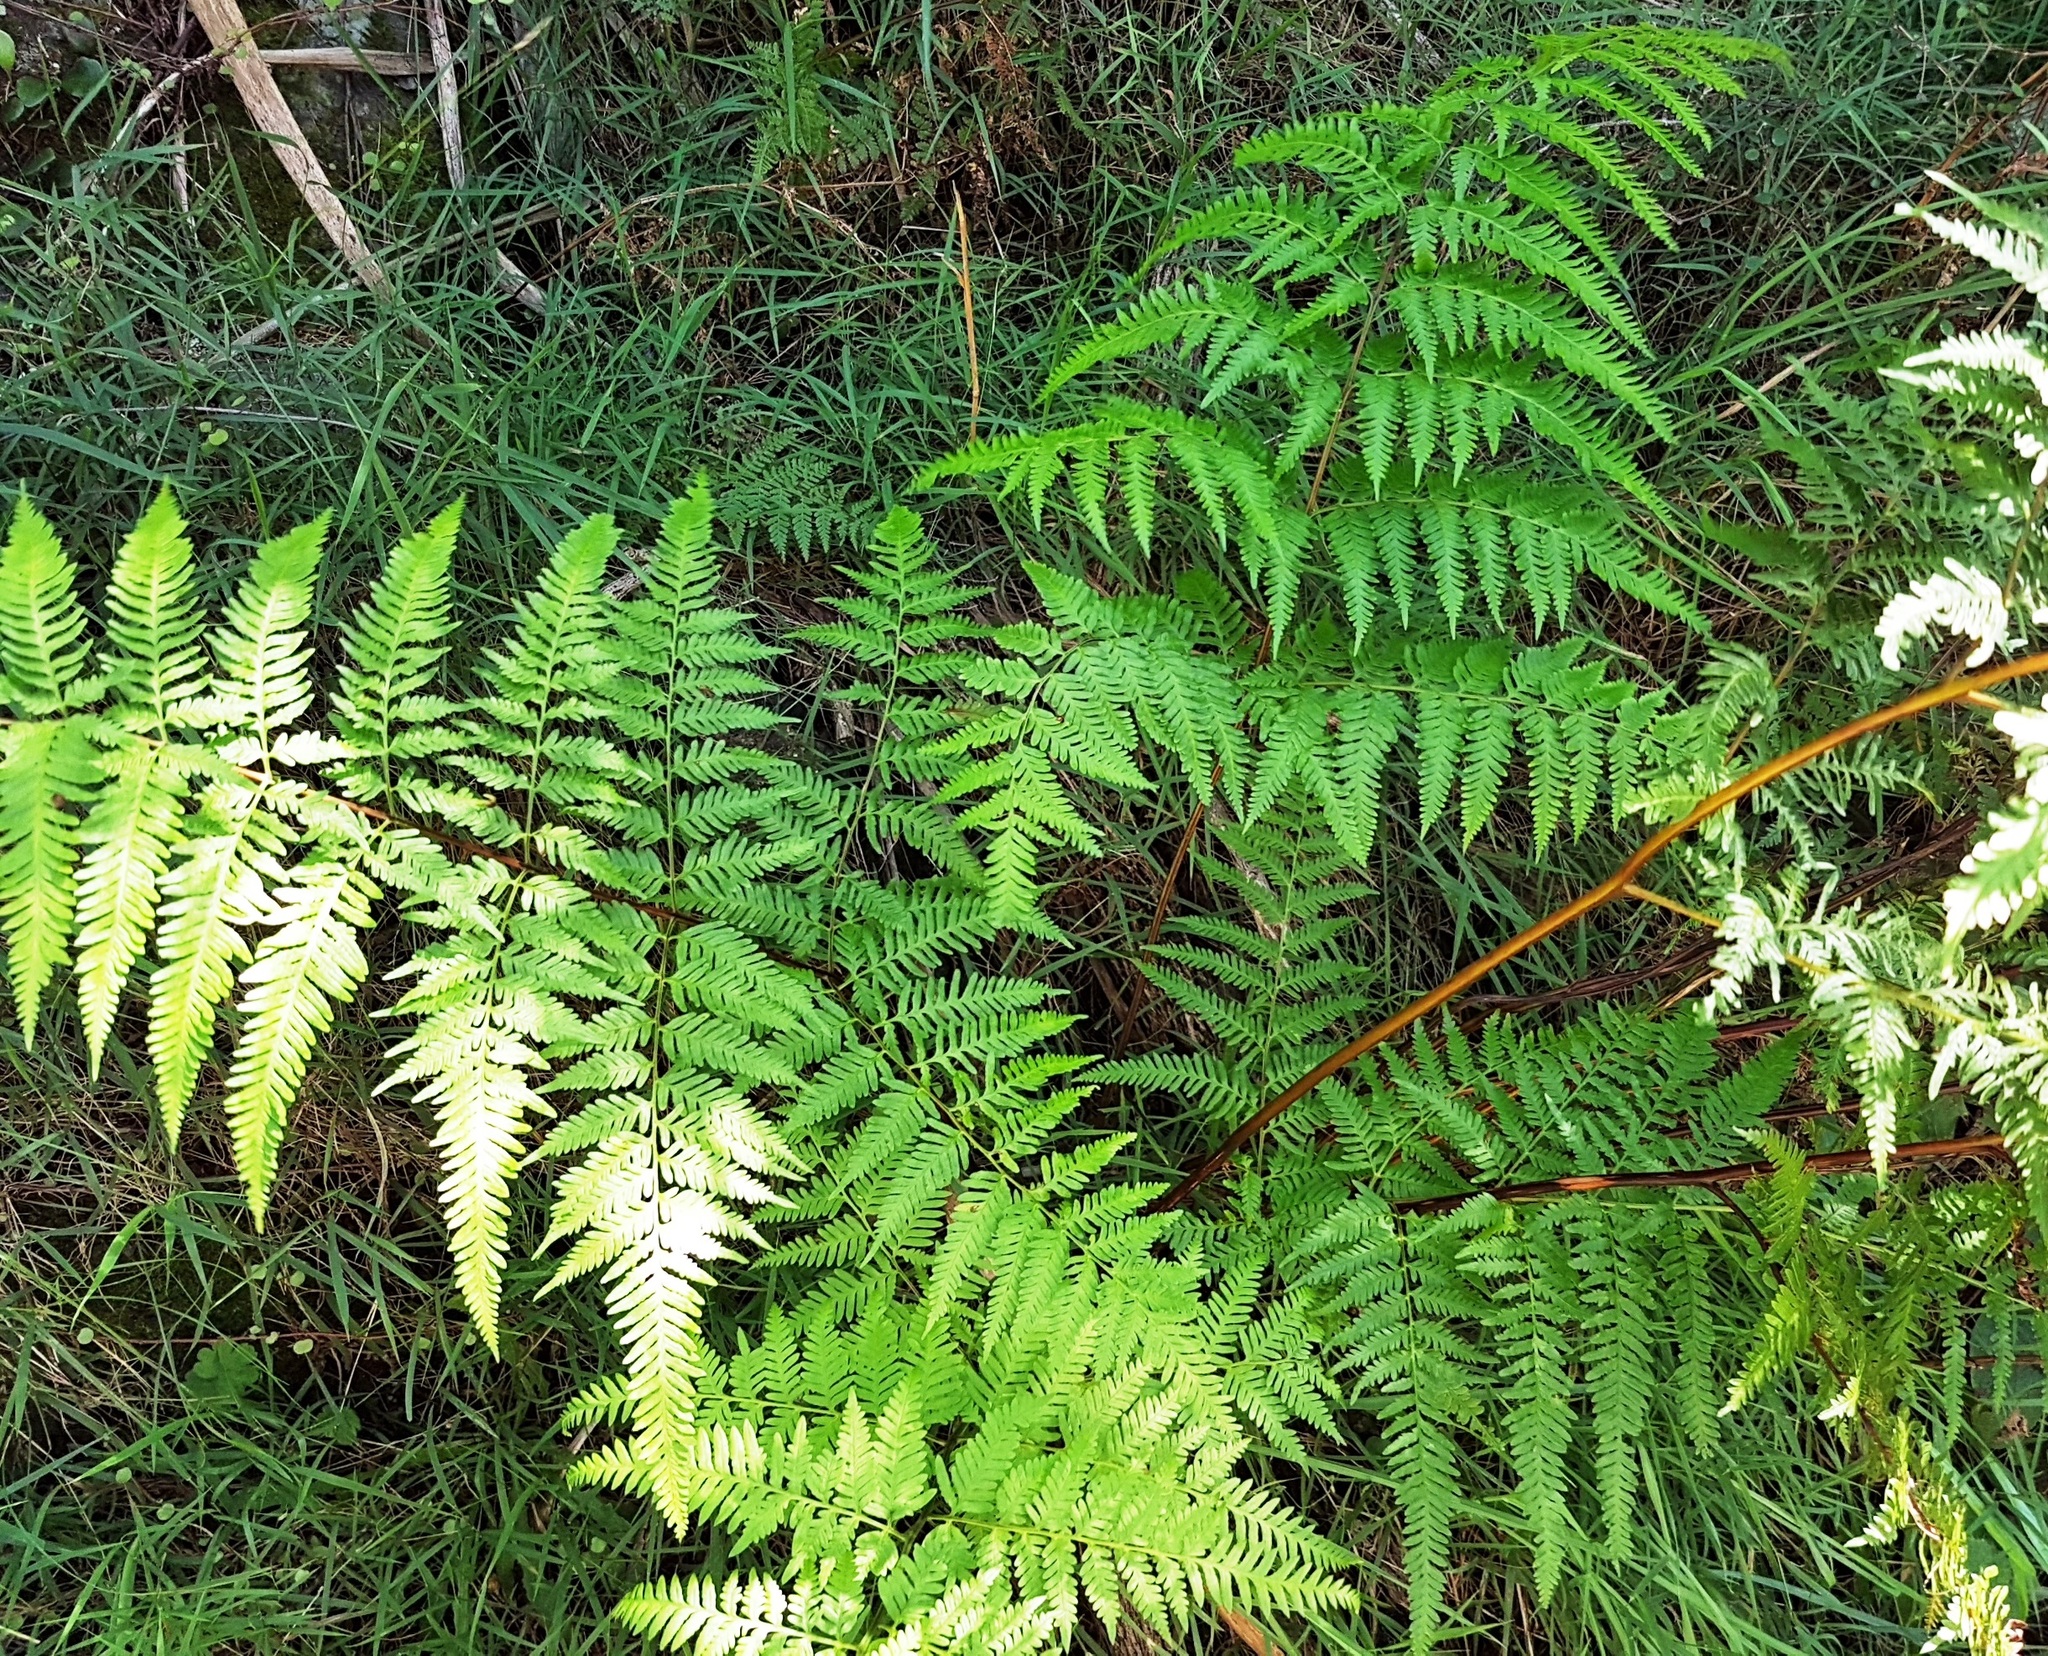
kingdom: Plantae
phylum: Tracheophyta
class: Polypodiopsida
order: Polypodiales
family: Pteridaceae
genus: Pteris
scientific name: Pteris tremula
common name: Australian brake
